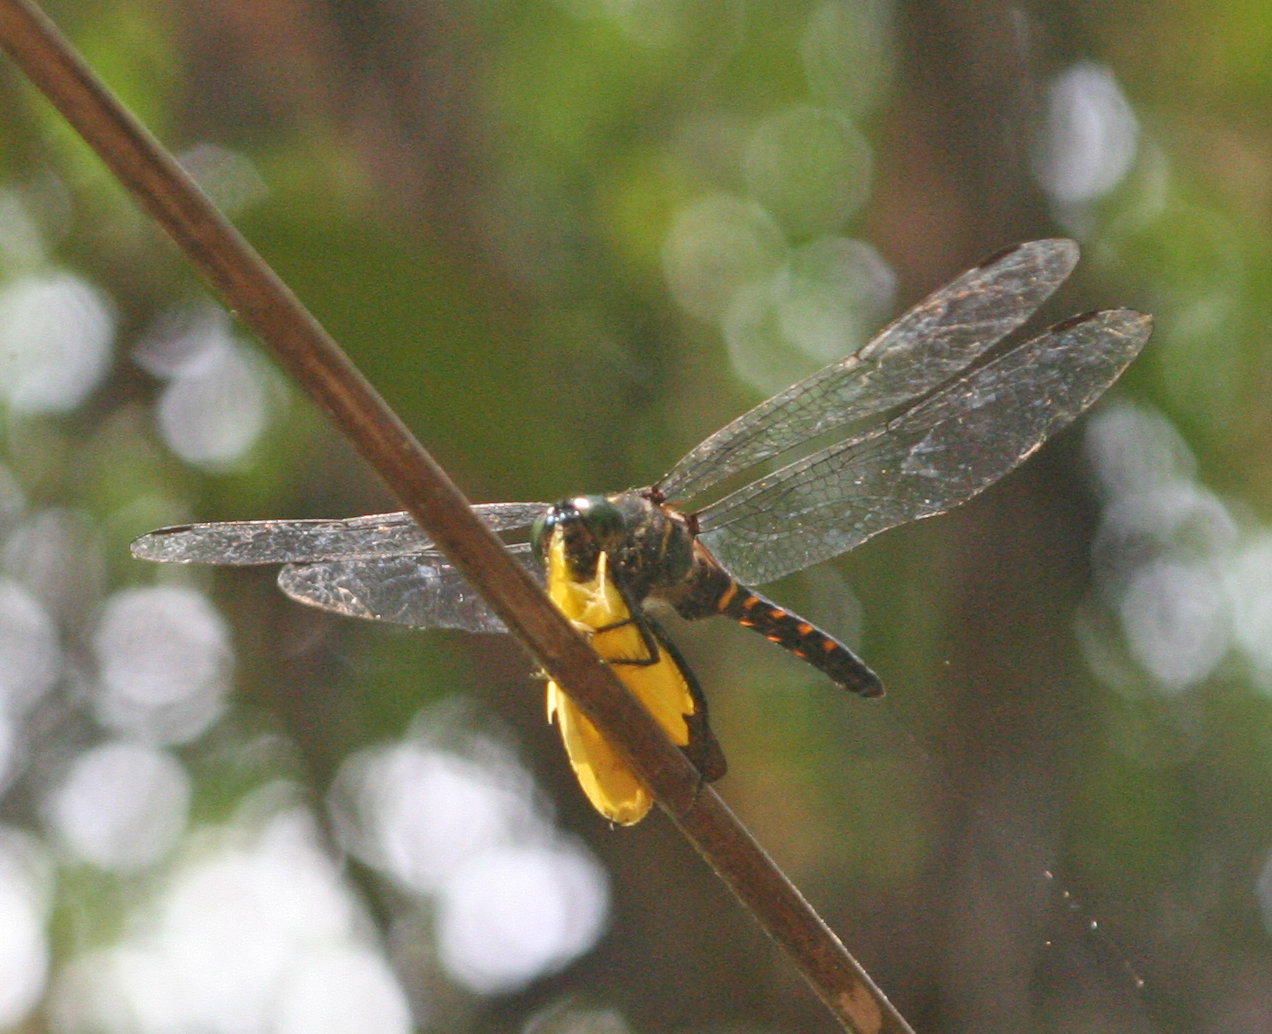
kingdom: Animalia
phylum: Arthropoda
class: Insecta
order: Odonata
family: Libellulidae
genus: Onychothemis
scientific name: Onychothemis testacea
